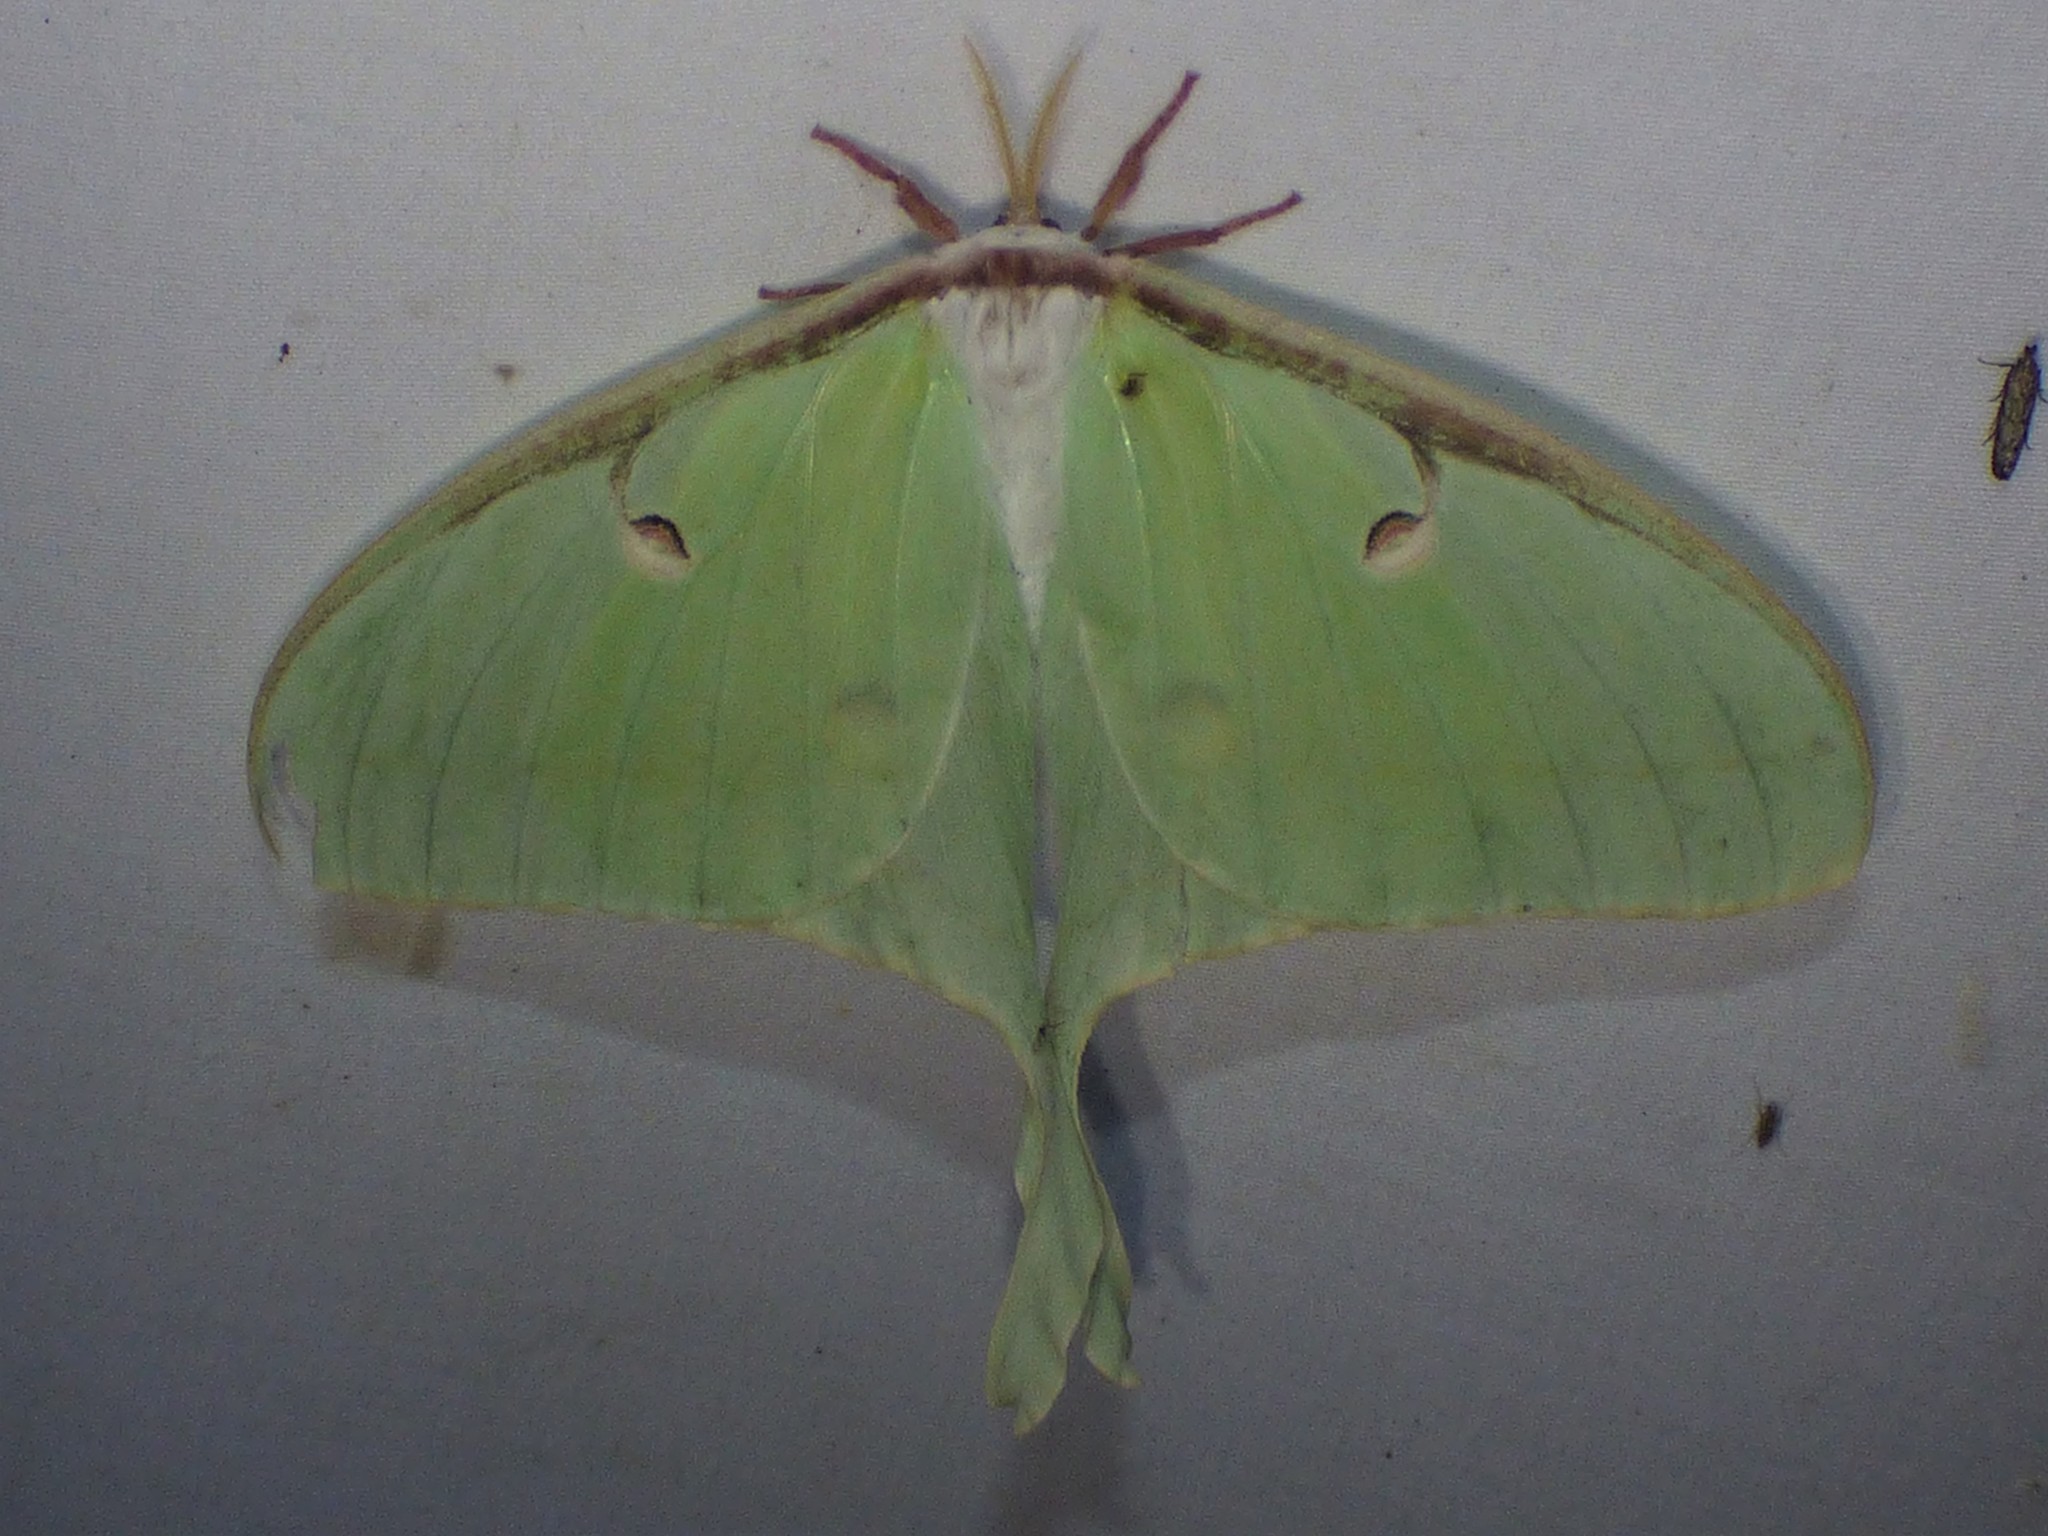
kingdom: Animalia
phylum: Arthropoda
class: Insecta
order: Lepidoptera
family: Saturniidae
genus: Actias
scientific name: Actias luna
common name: Luna moth
